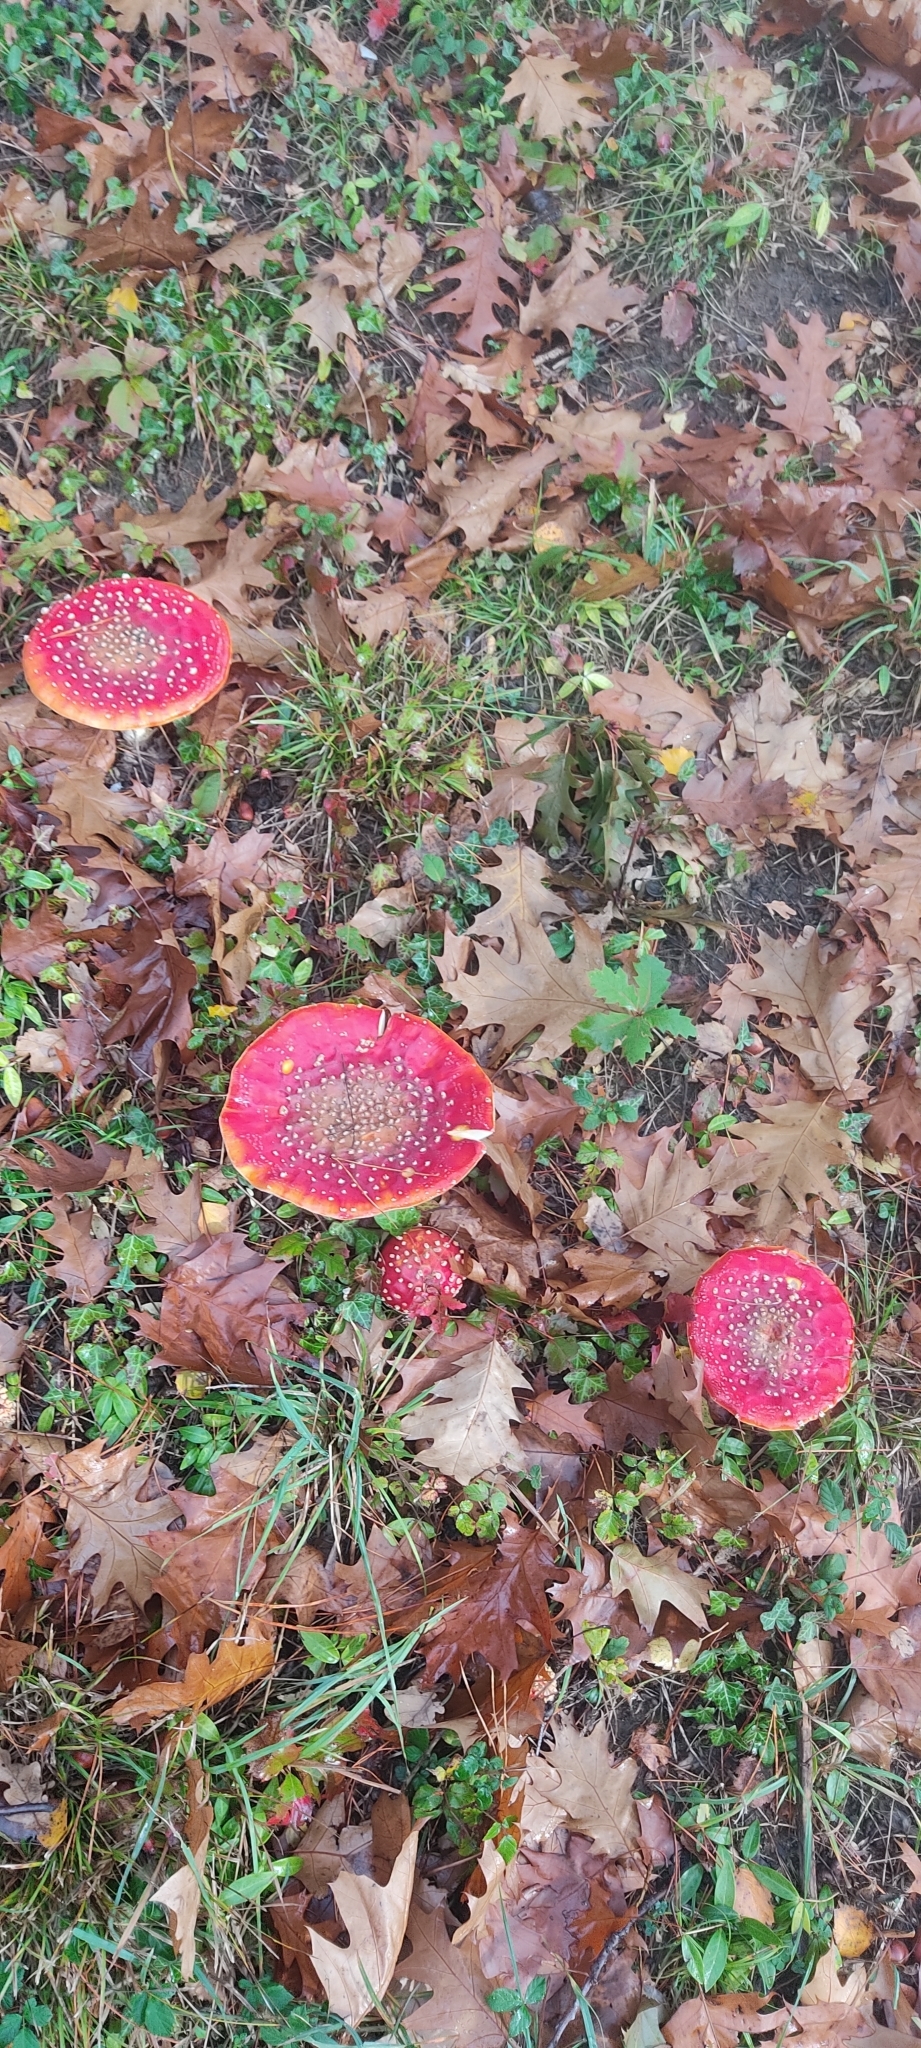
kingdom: Fungi
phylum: Basidiomycota
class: Agaricomycetes
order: Agaricales
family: Amanitaceae
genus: Amanita
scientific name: Amanita muscaria
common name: Fly agaric
